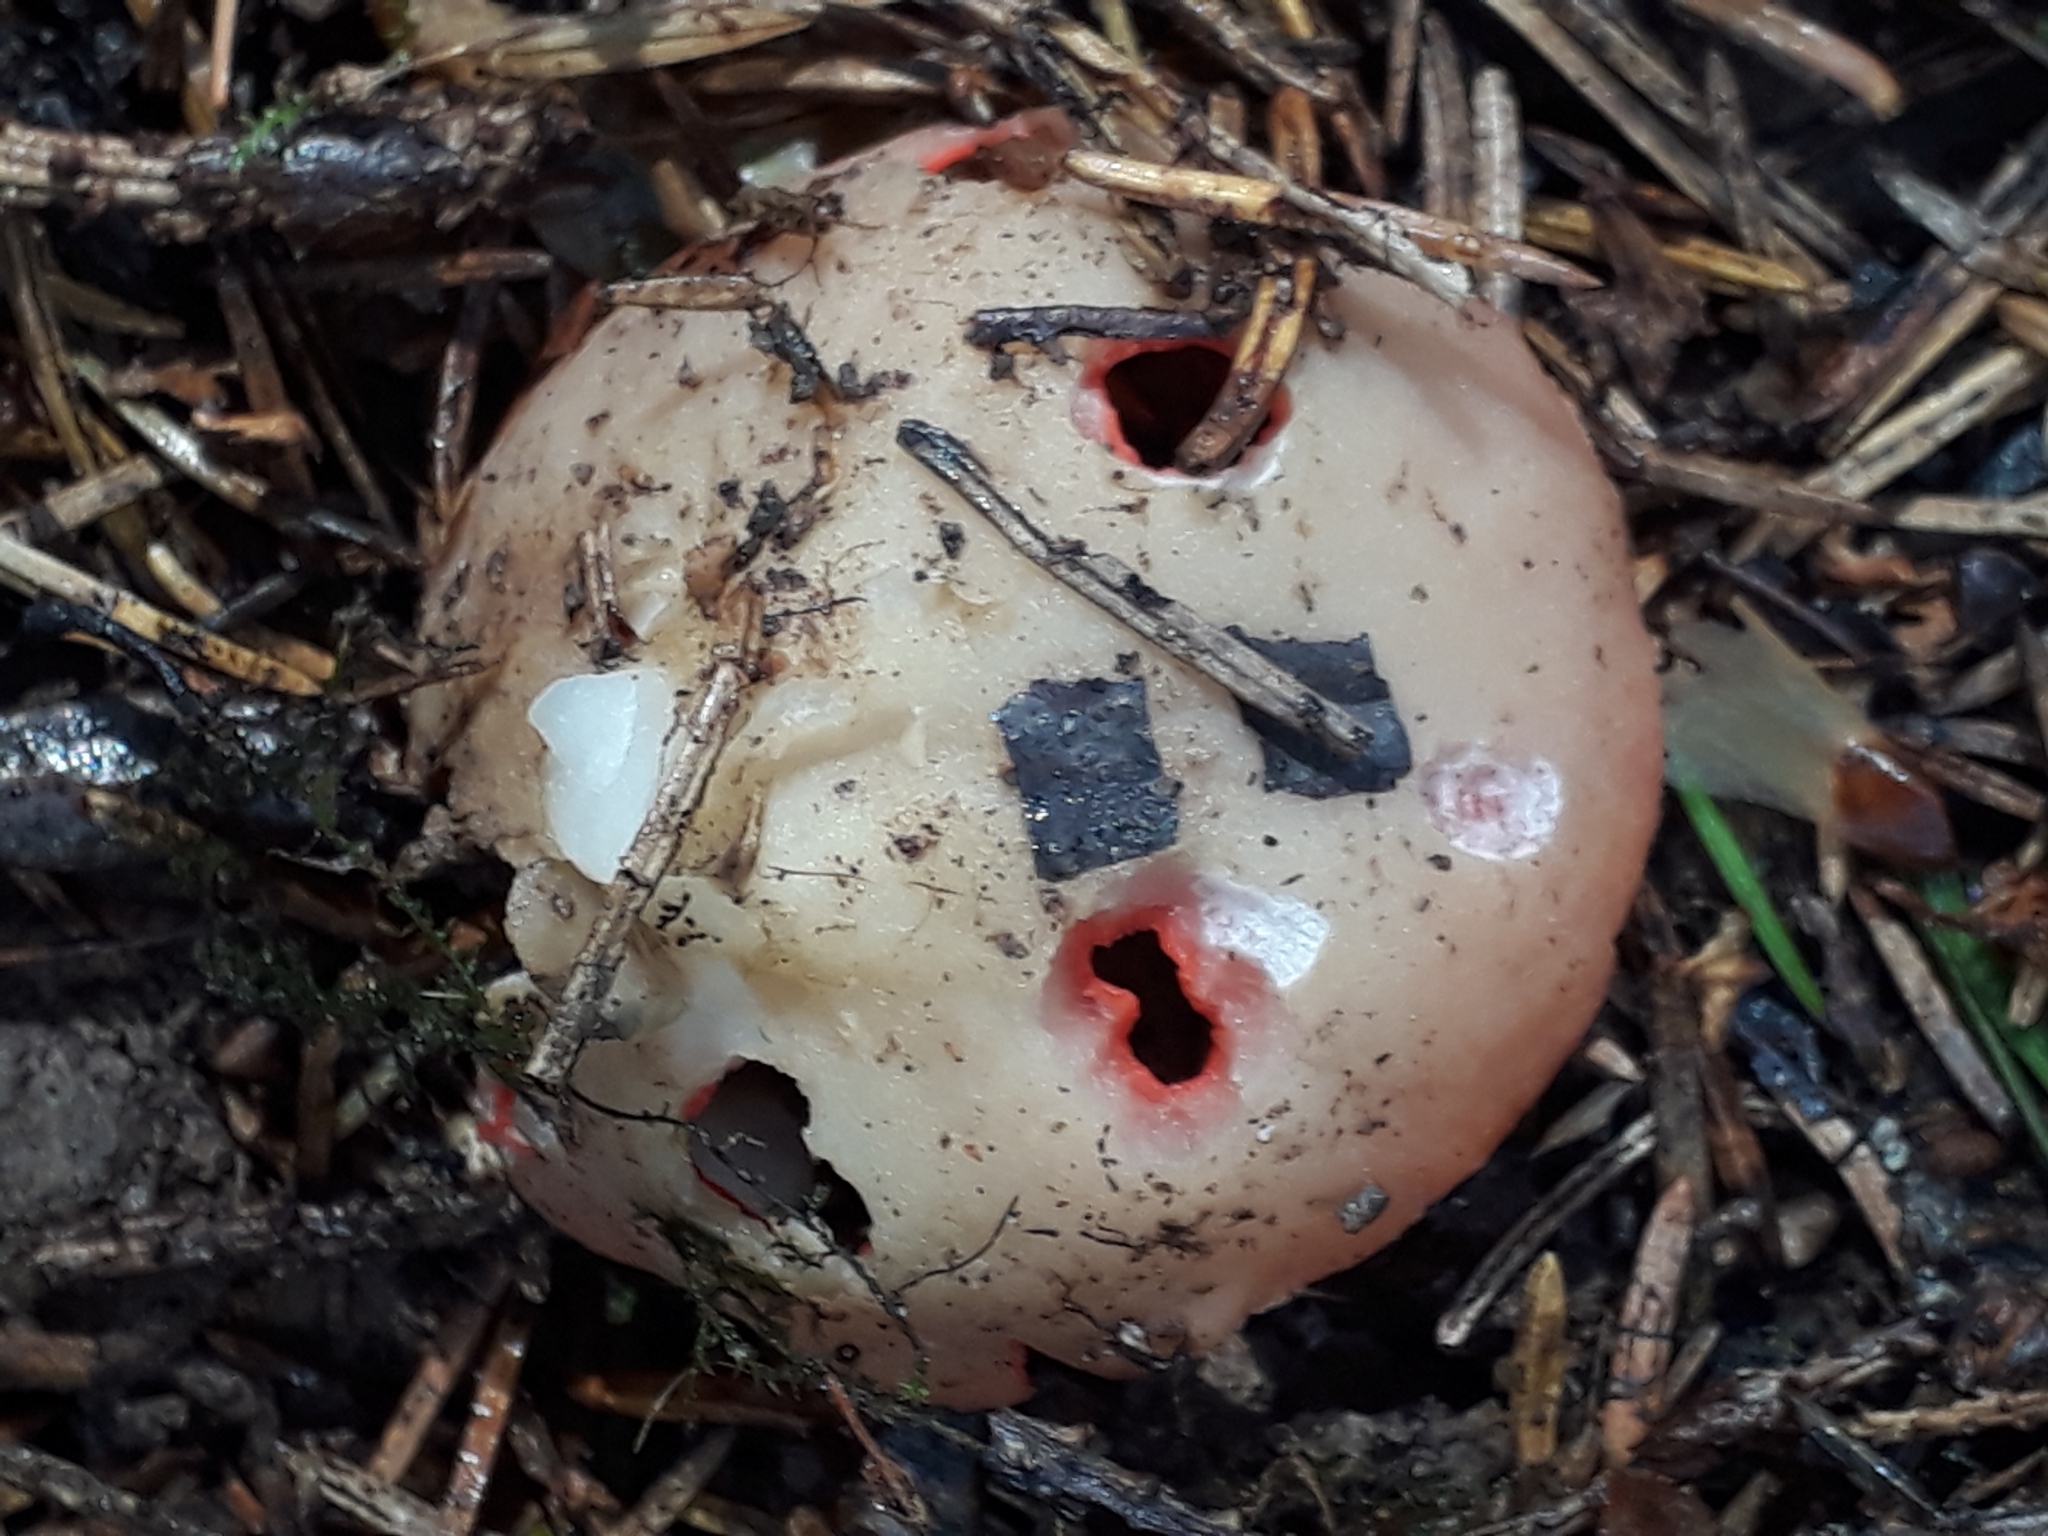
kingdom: Fungi
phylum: Ascomycota
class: Pezizomycetes
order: Pezizales
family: Sarcoscyphaceae
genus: Sarcoscypha
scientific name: Sarcoscypha austriaca
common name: Scarlet elfcup
